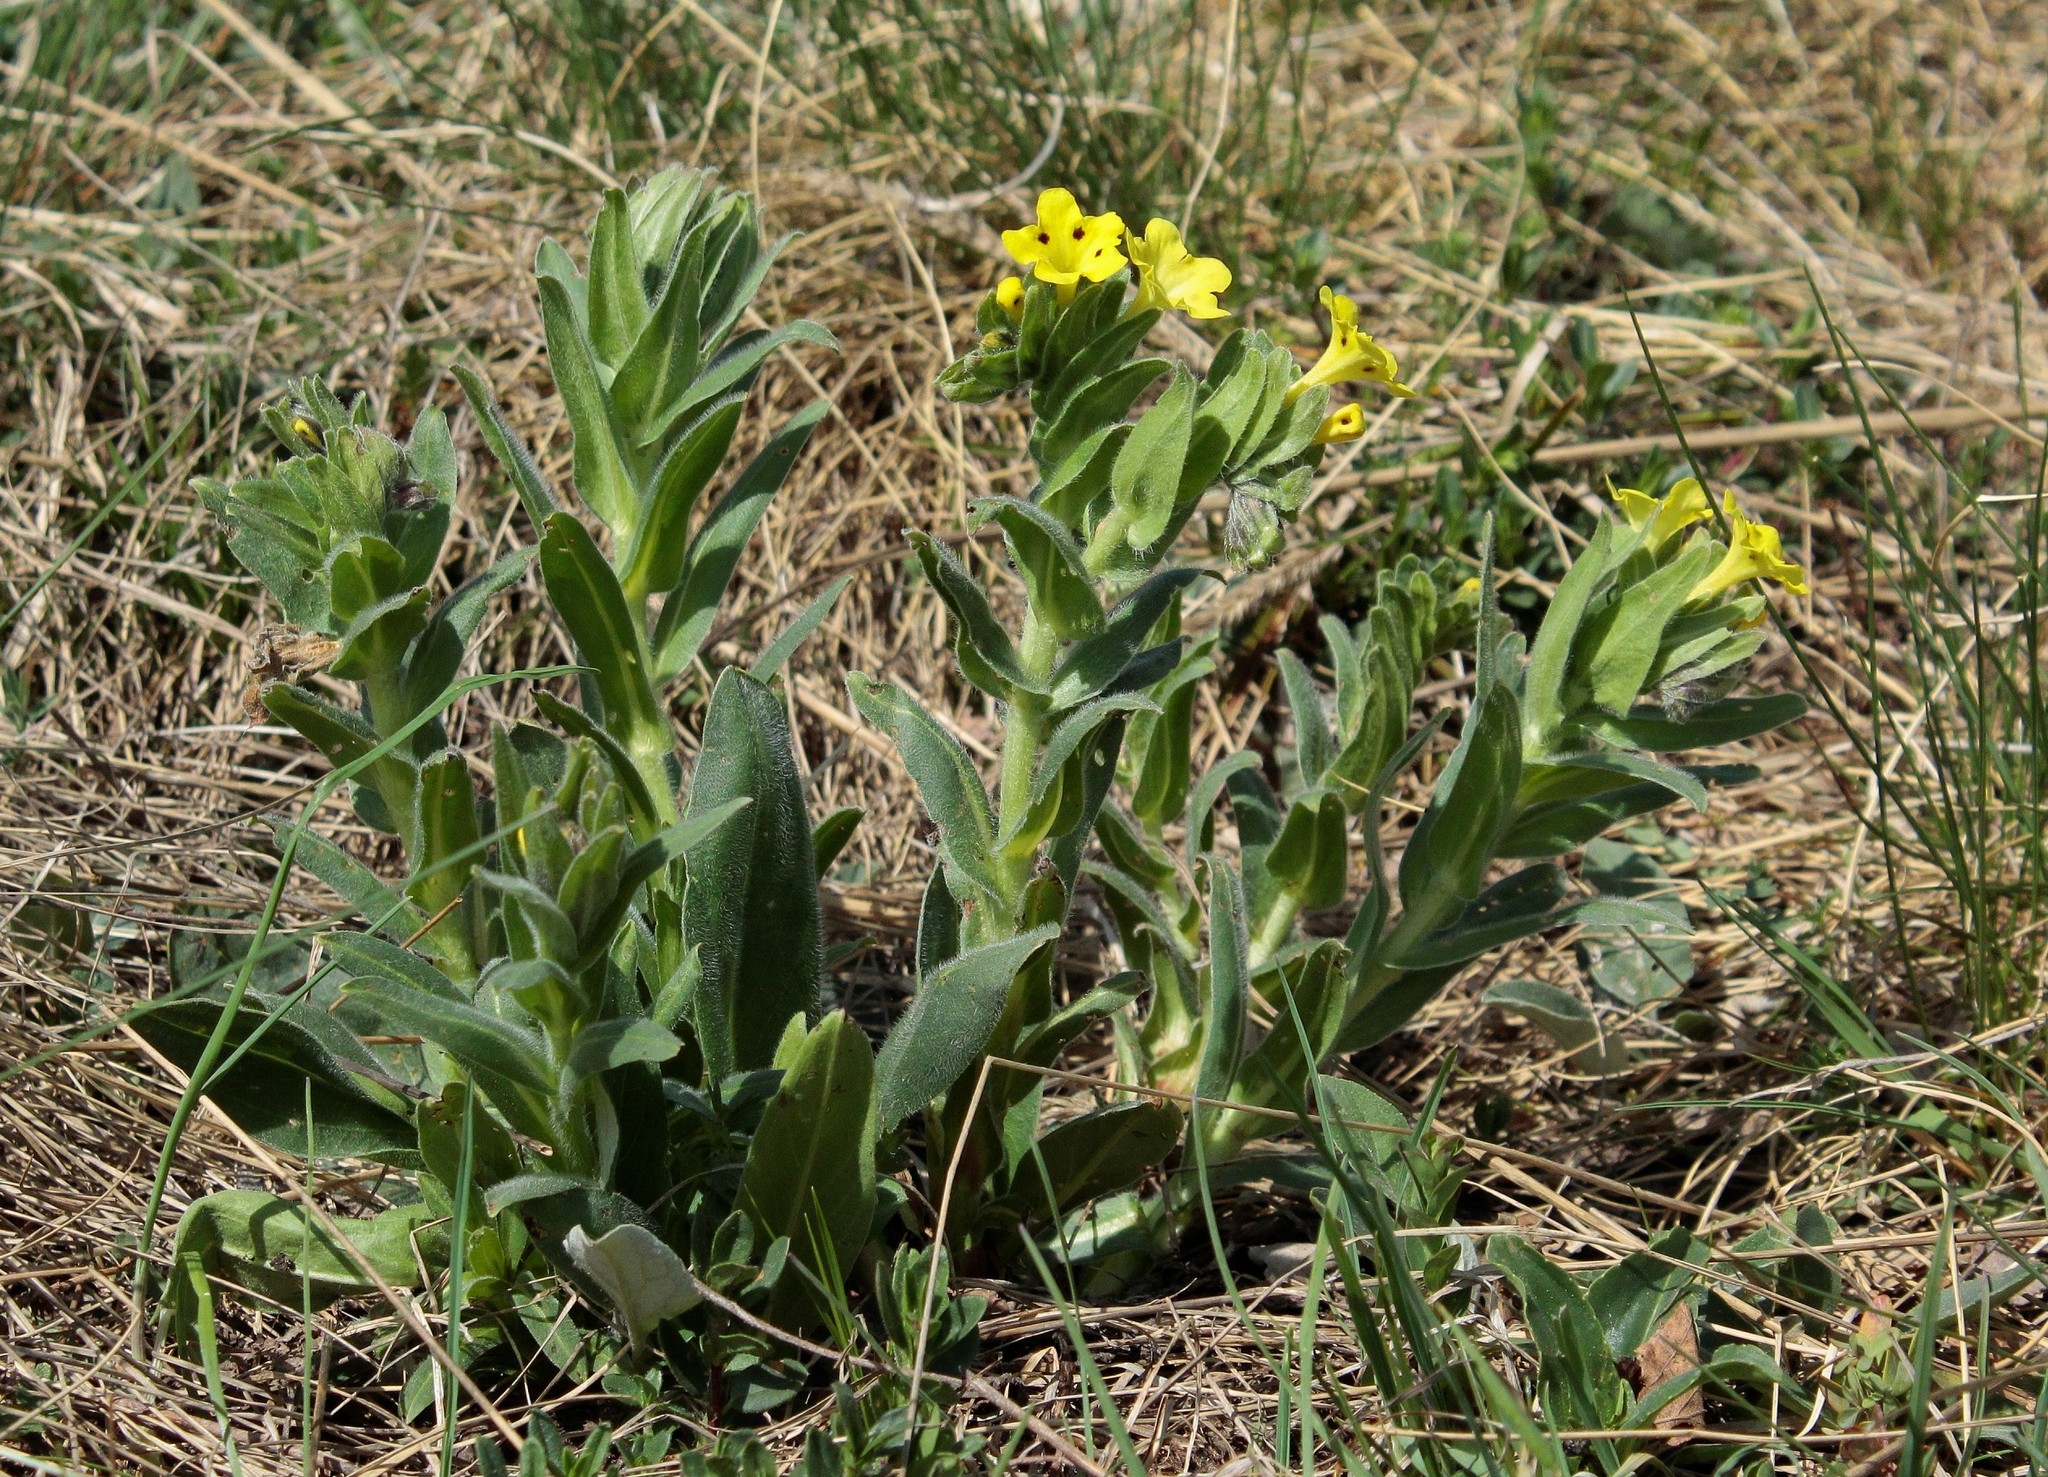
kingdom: Plantae
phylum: Tracheophyta
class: Magnoliopsida
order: Boraginales
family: Boraginaceae
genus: Huynhia
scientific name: Huynhia pulchra
